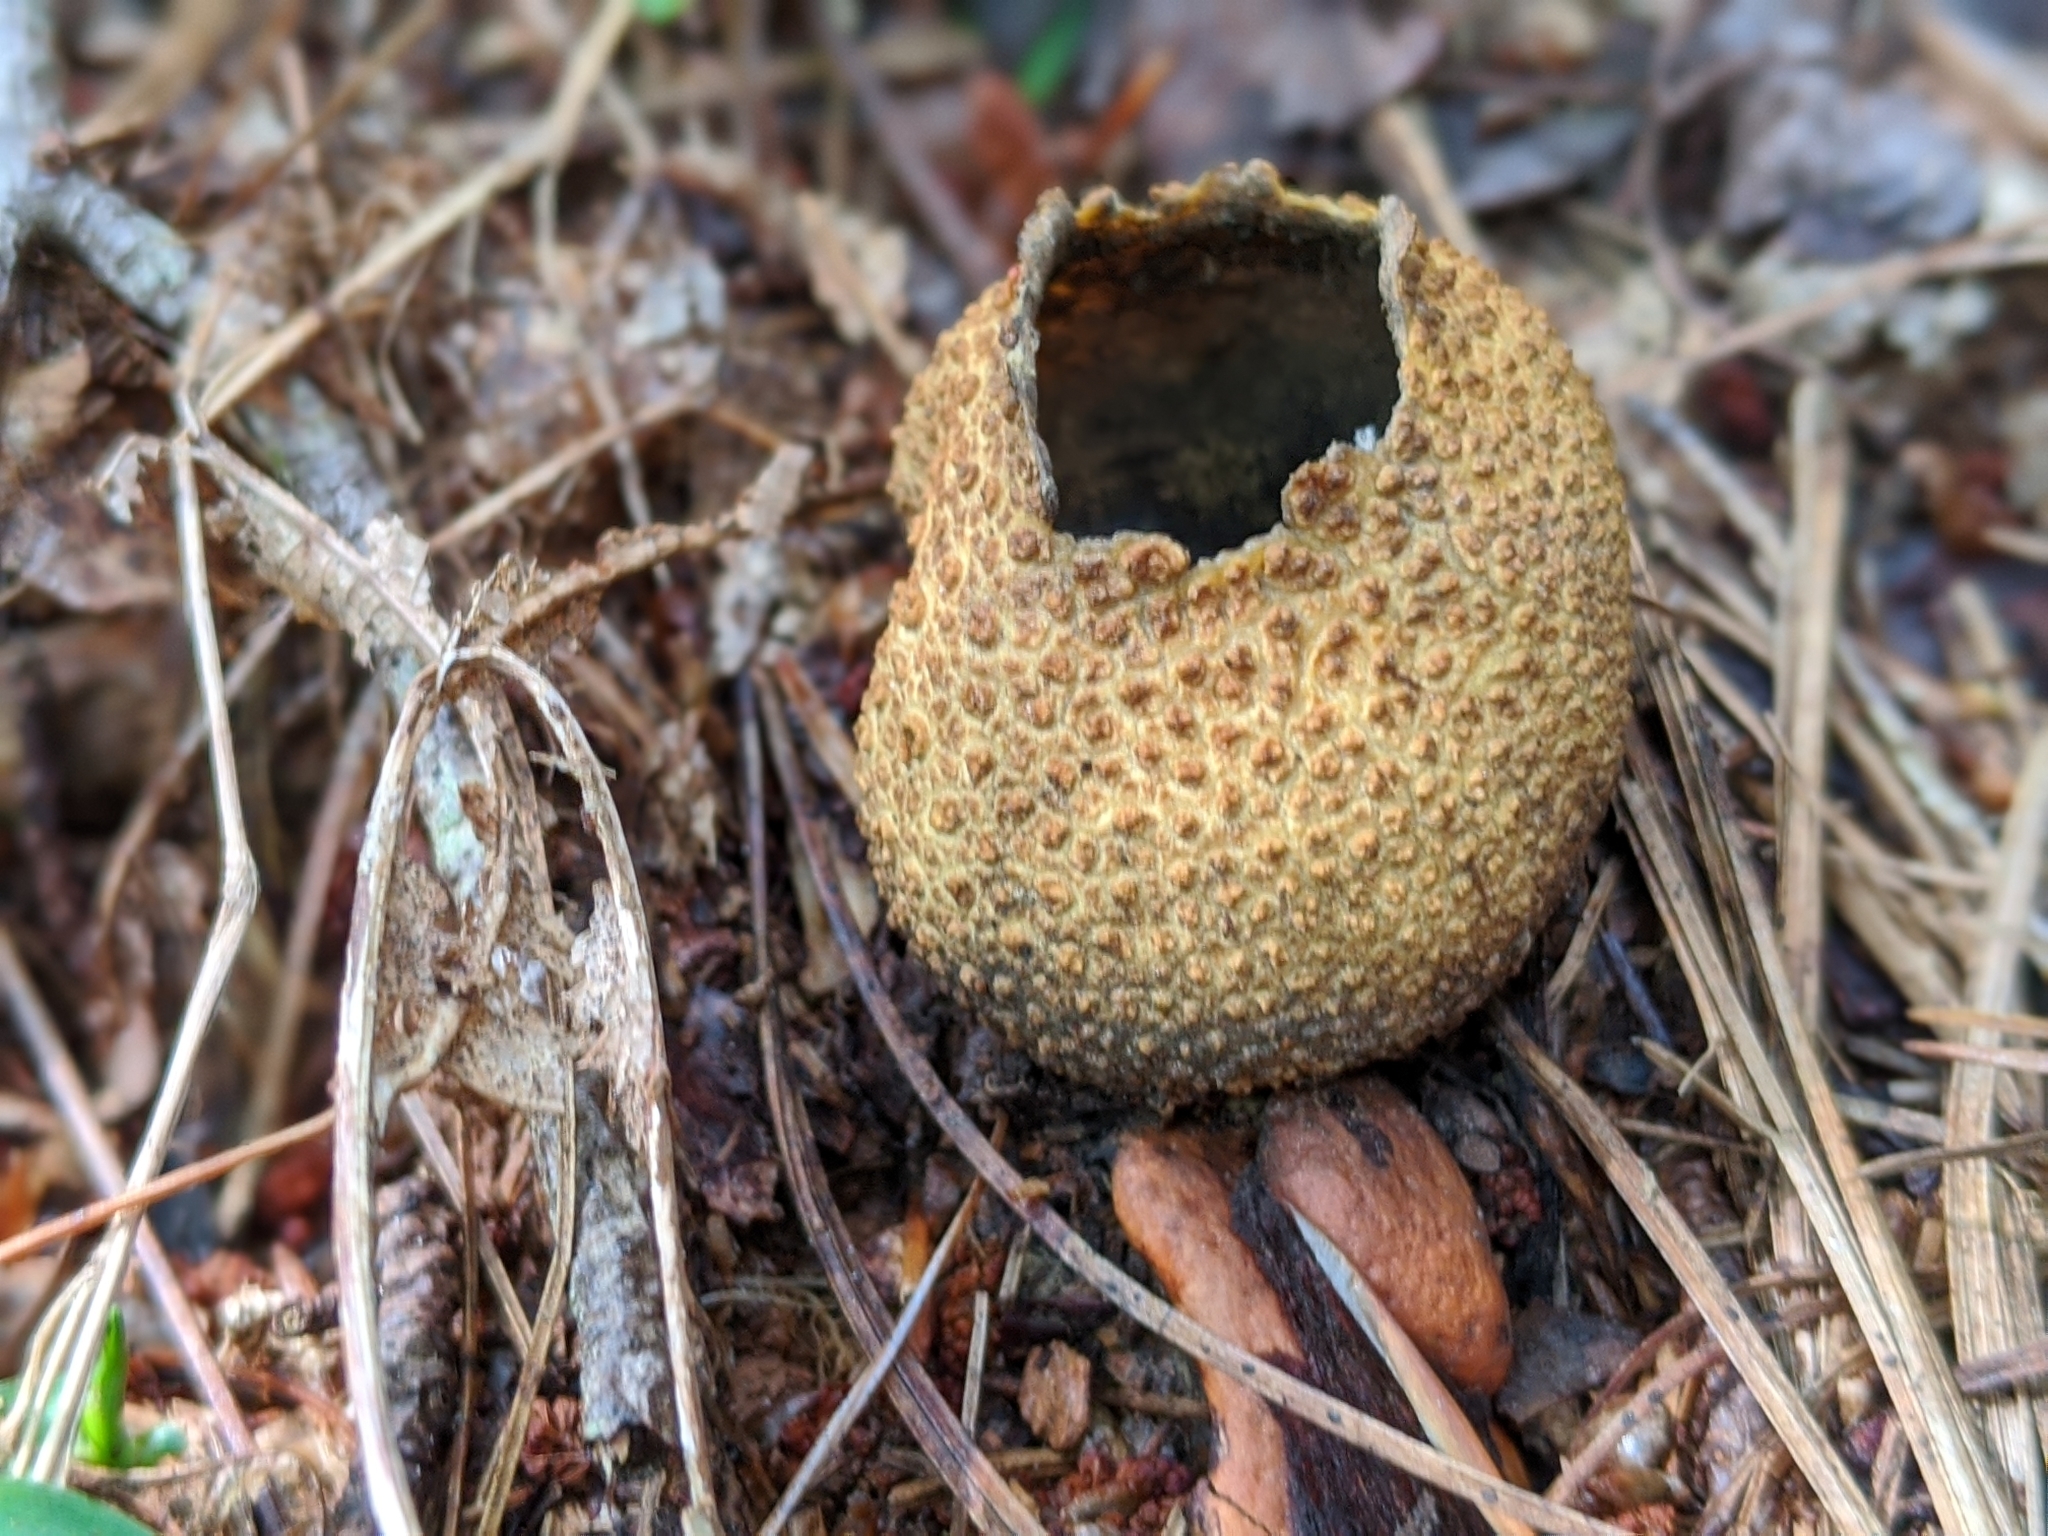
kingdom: Fungi
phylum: Basidiomycota
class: Agaricomycetes
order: Boletales
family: Sclerodermataceae
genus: Scleroderma
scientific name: Scleroderma citrinum
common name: Common earthball
